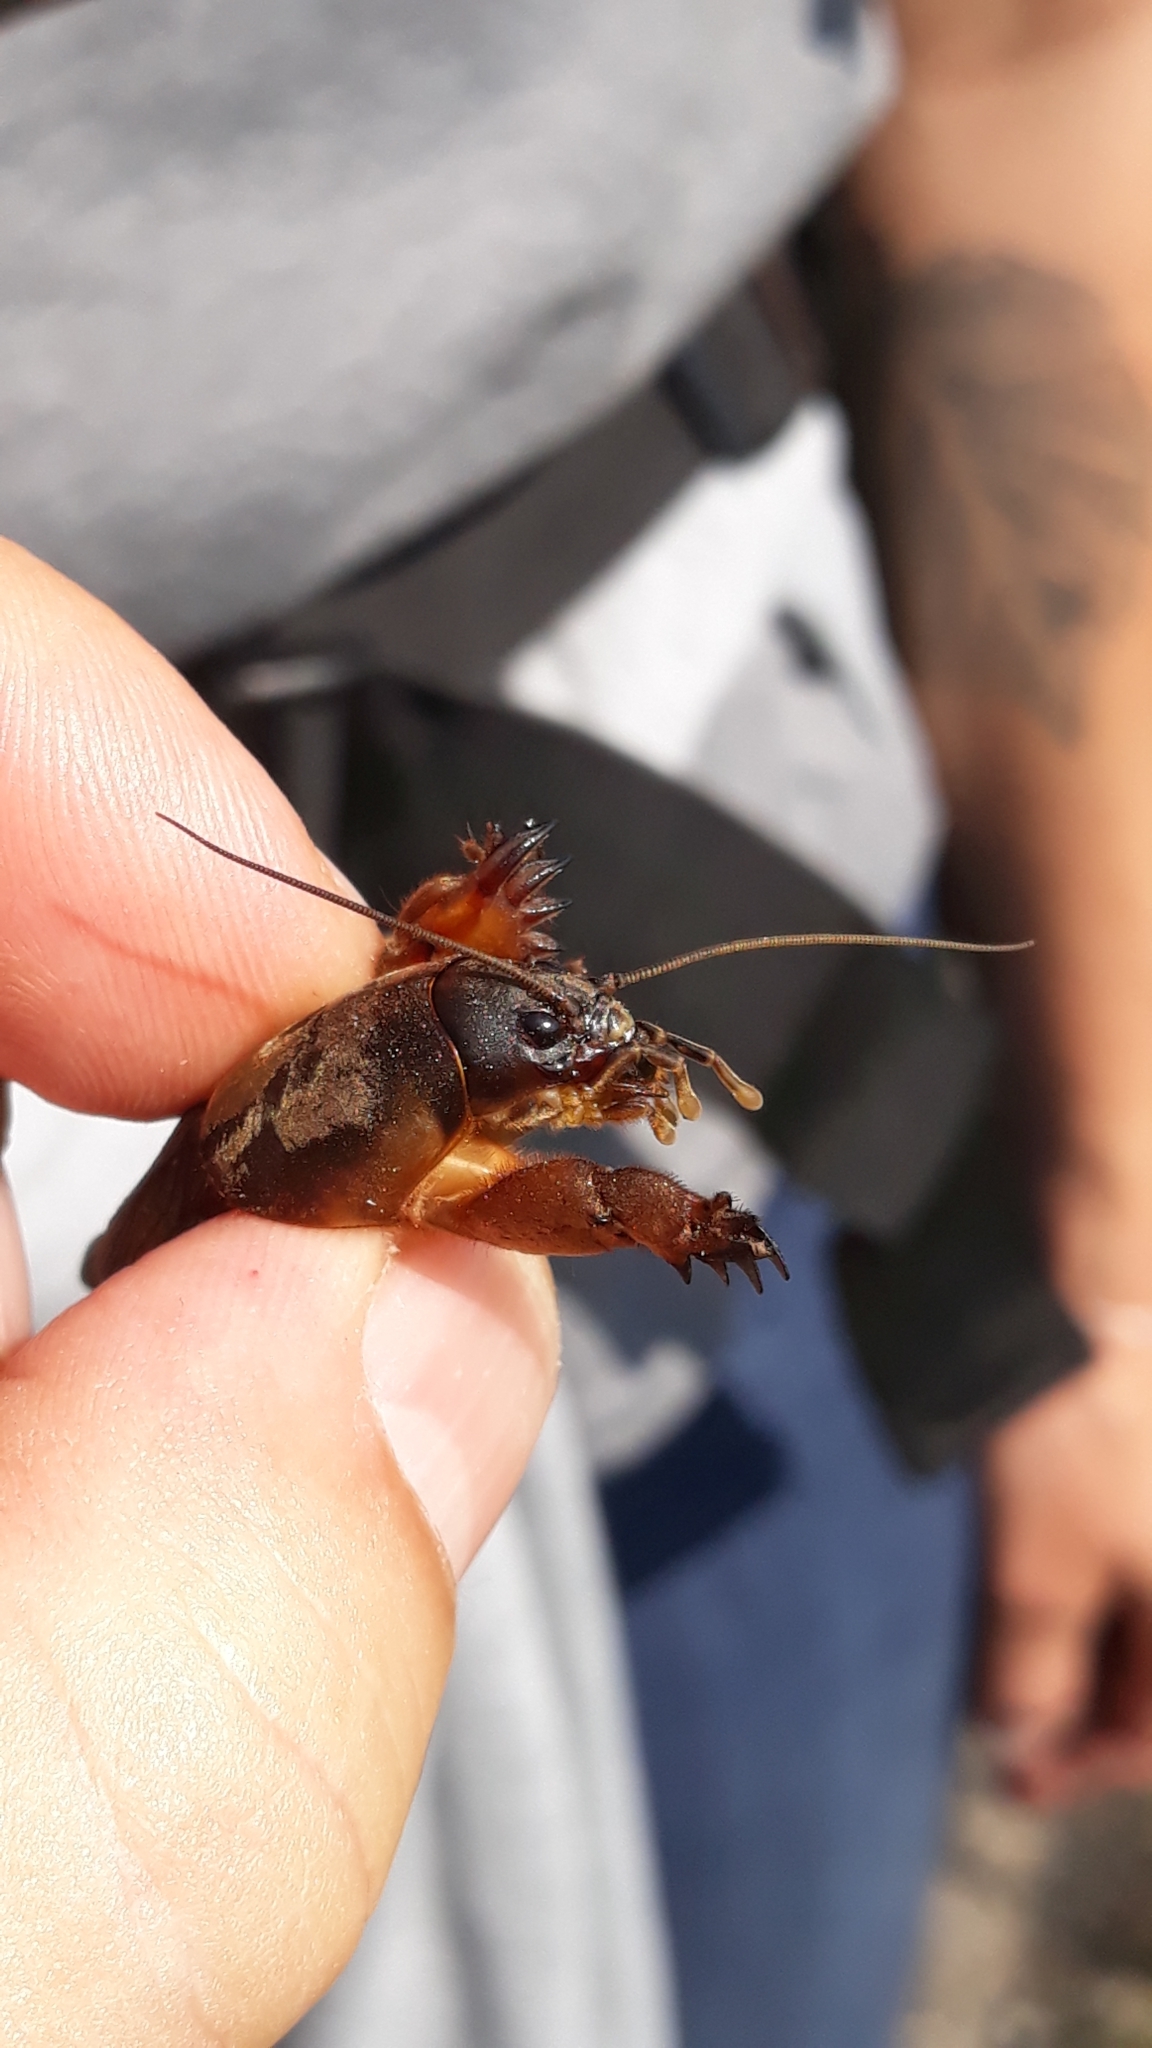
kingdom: Animalia
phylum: Arthropoda
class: Insecta
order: Orthoptera
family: Gryllotalpidae
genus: Gryllotalpa
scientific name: Gryllotalpa gryllotalpa
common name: European mole cricket
